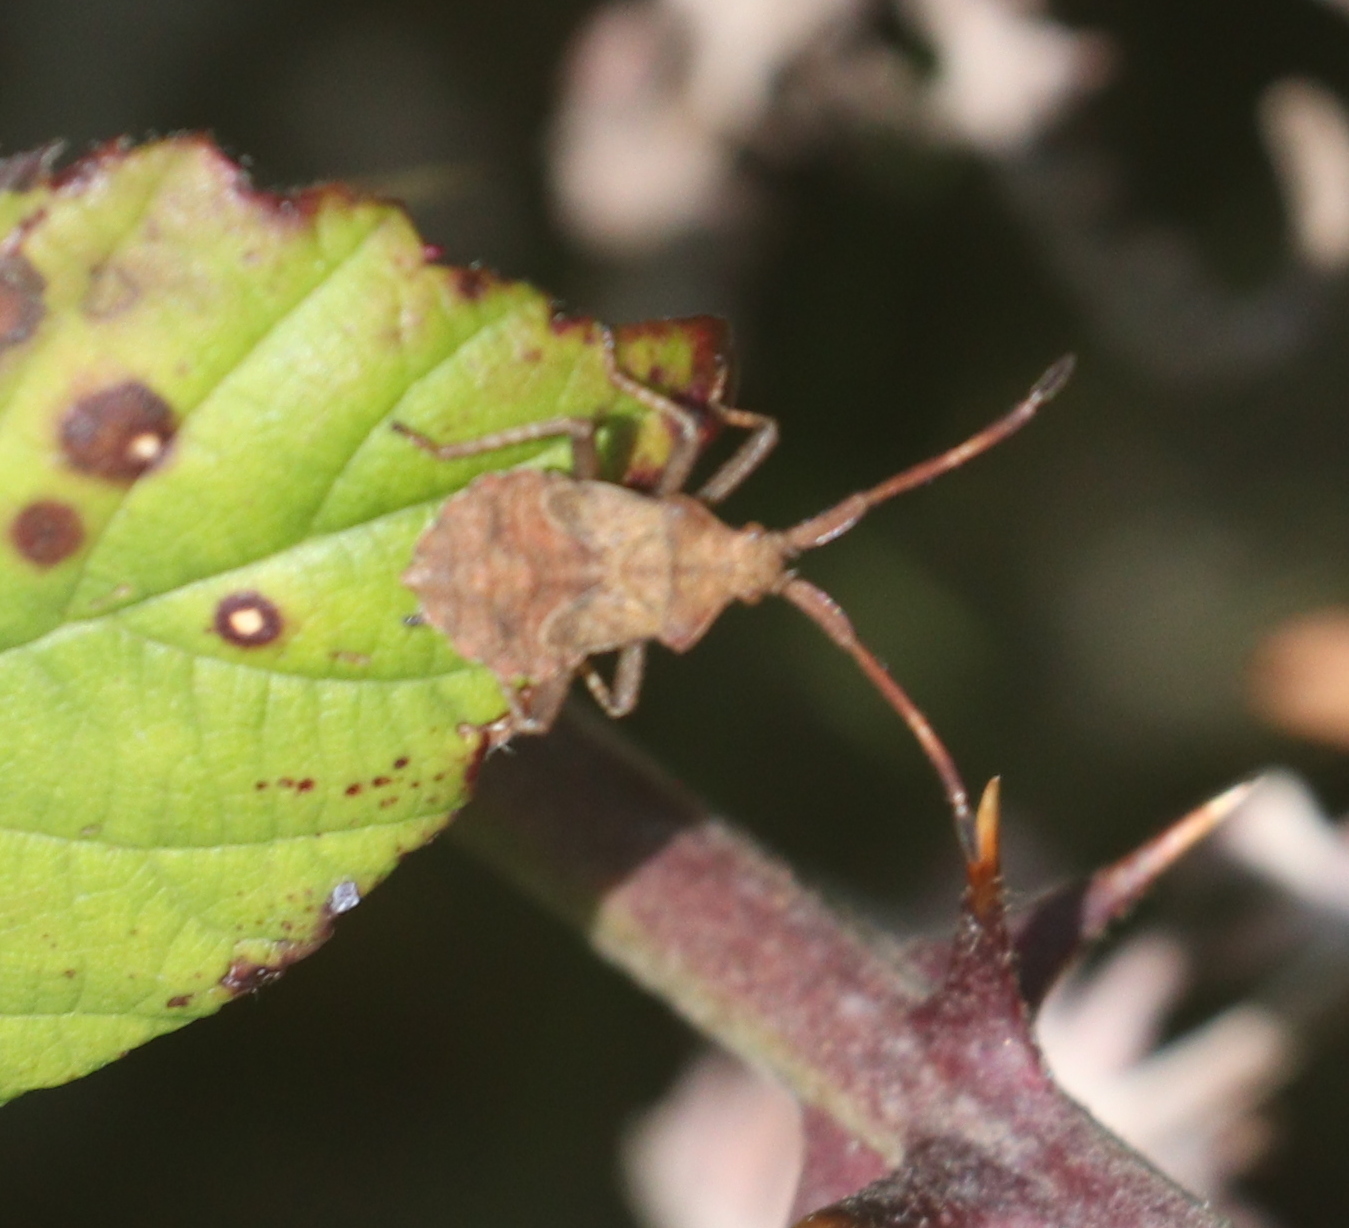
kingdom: Animalia
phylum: Arthropoda
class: Insecta
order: Hemiptera
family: Coreidae
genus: Coreus
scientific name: Coreus marginatus
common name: Dock bug
